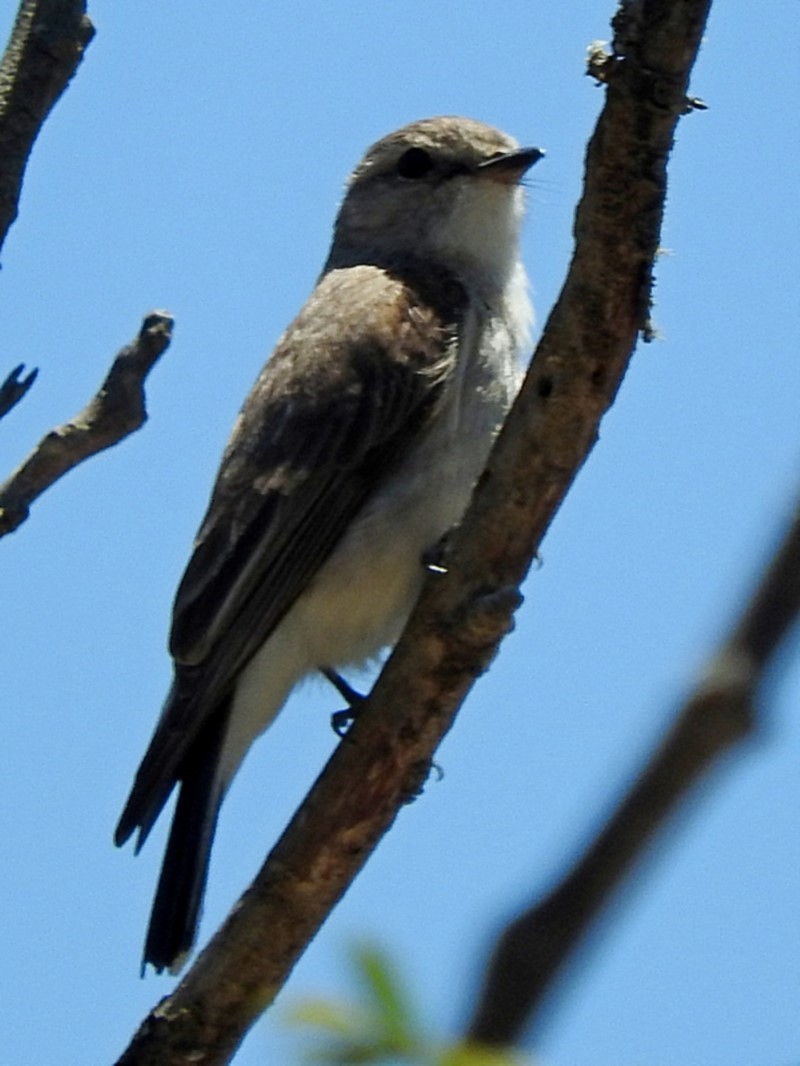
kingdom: Animalia
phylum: Chordata
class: Aves
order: Passeriformes
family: Petroicidae
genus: Microeca
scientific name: Microeca fascinans
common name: Jacky winter
